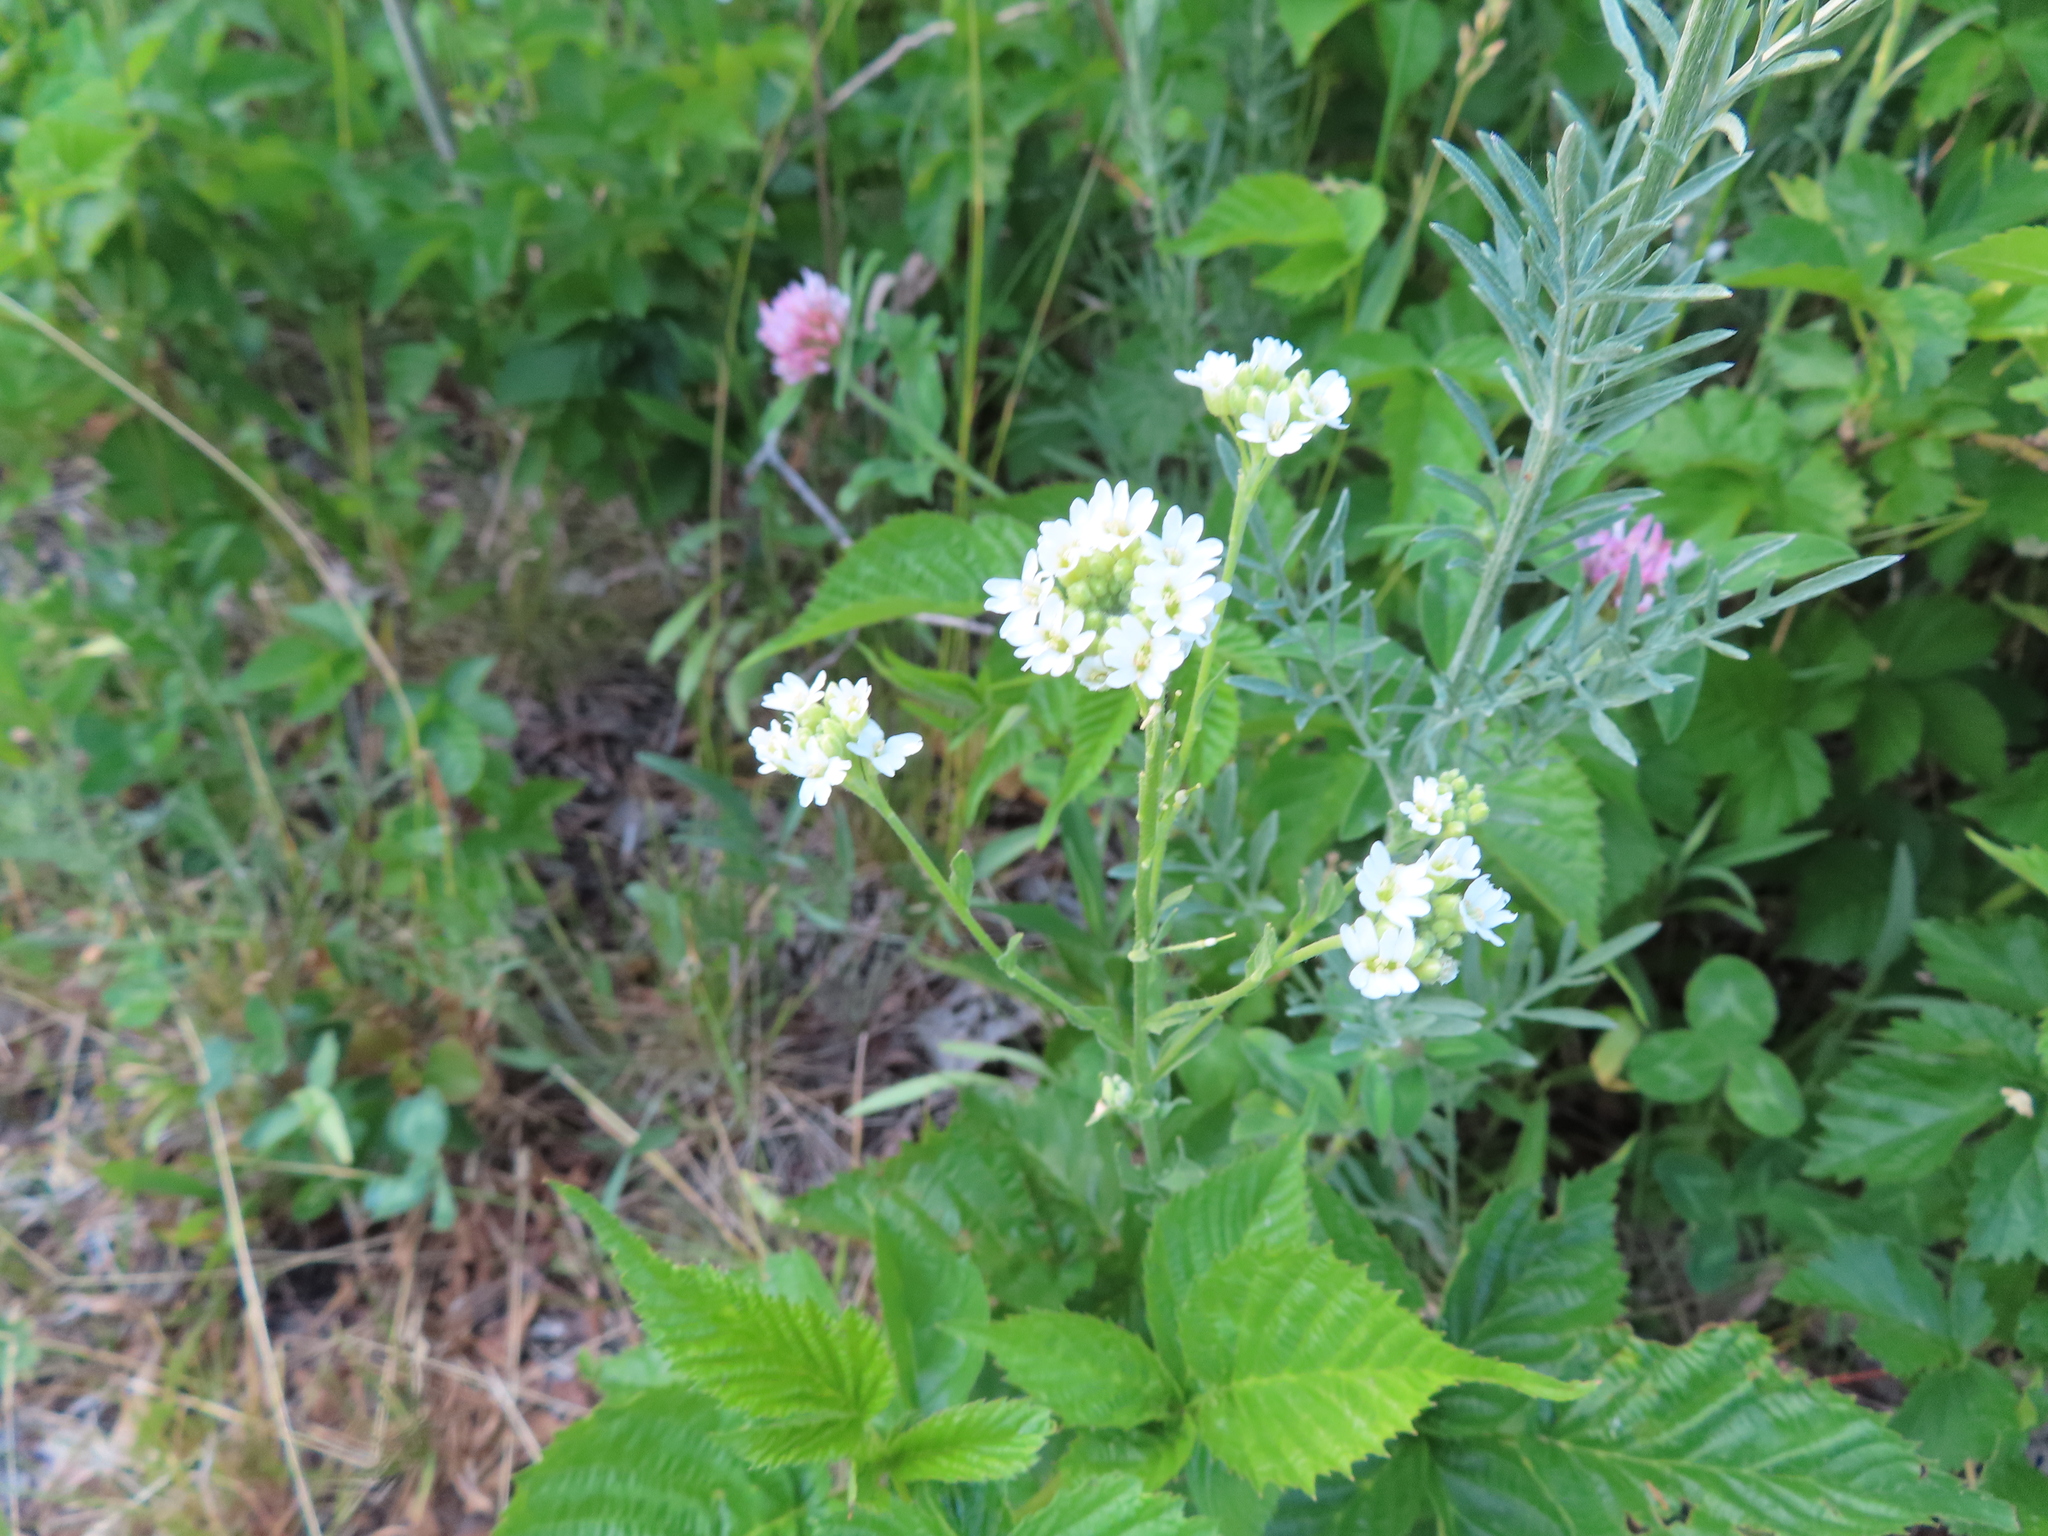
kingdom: Plantae
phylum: Tracheophyta
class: Magnoliopsida
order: Brassicales
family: Brassicaceae
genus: Berteroa
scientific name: Berteroa incana
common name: Hoary alison
